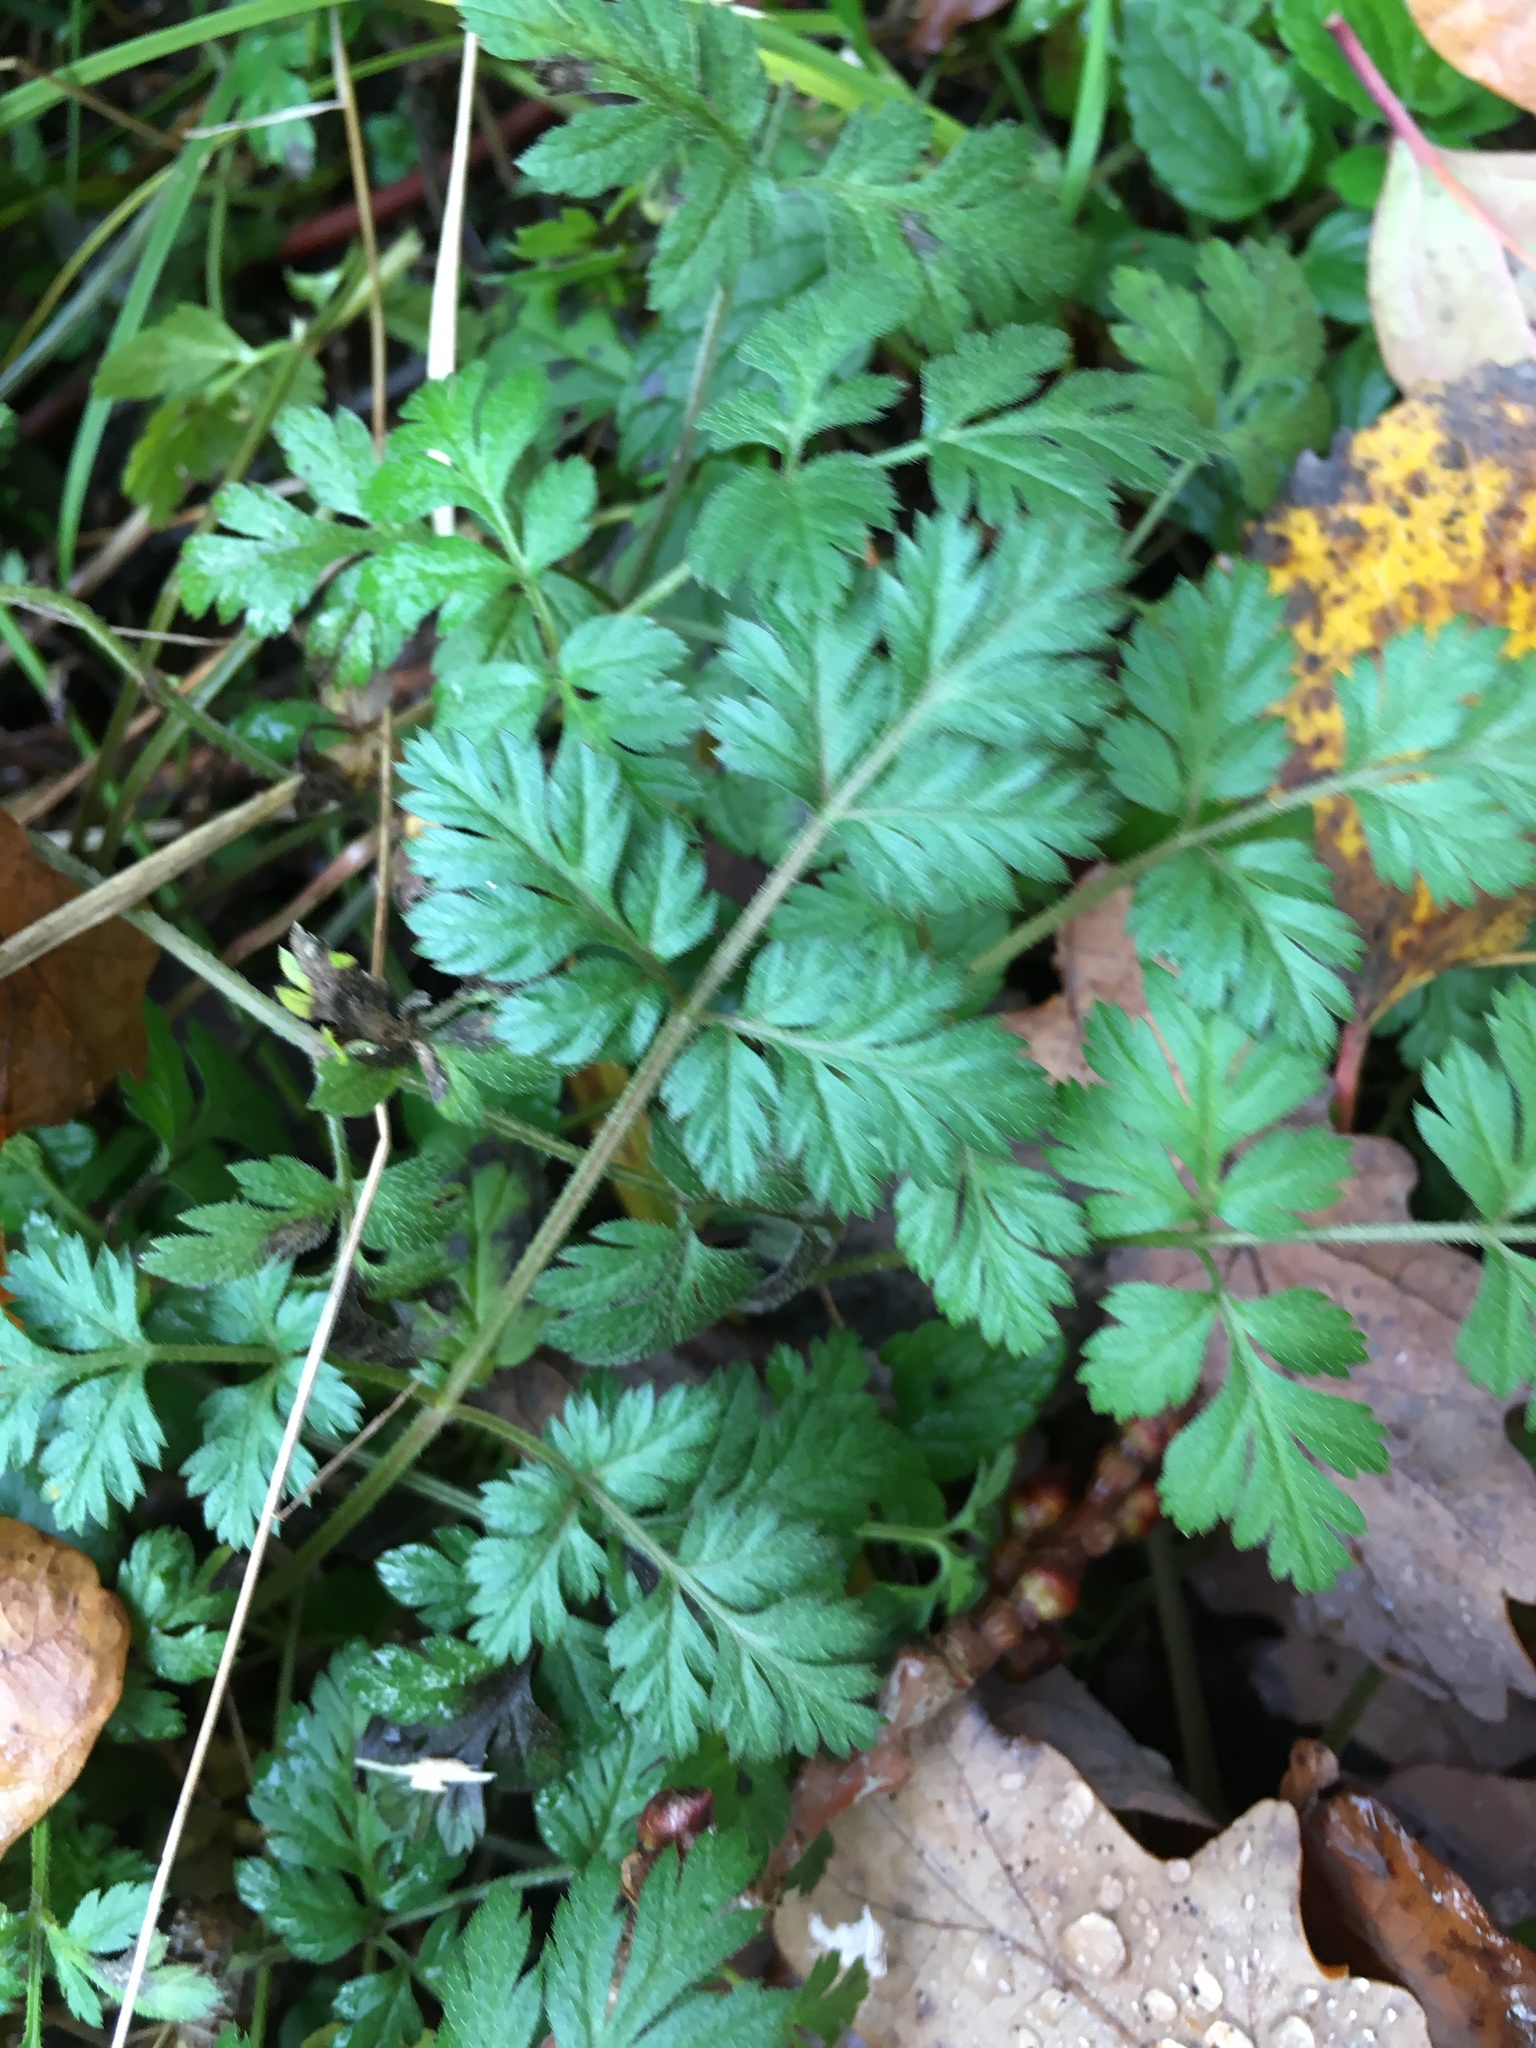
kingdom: Plantae
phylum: Tracheophyta
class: Magnoliopsida
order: Apiales
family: Apiaceae
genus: Torilis
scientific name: Torilis japonica
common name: Upright hedge-parsley
